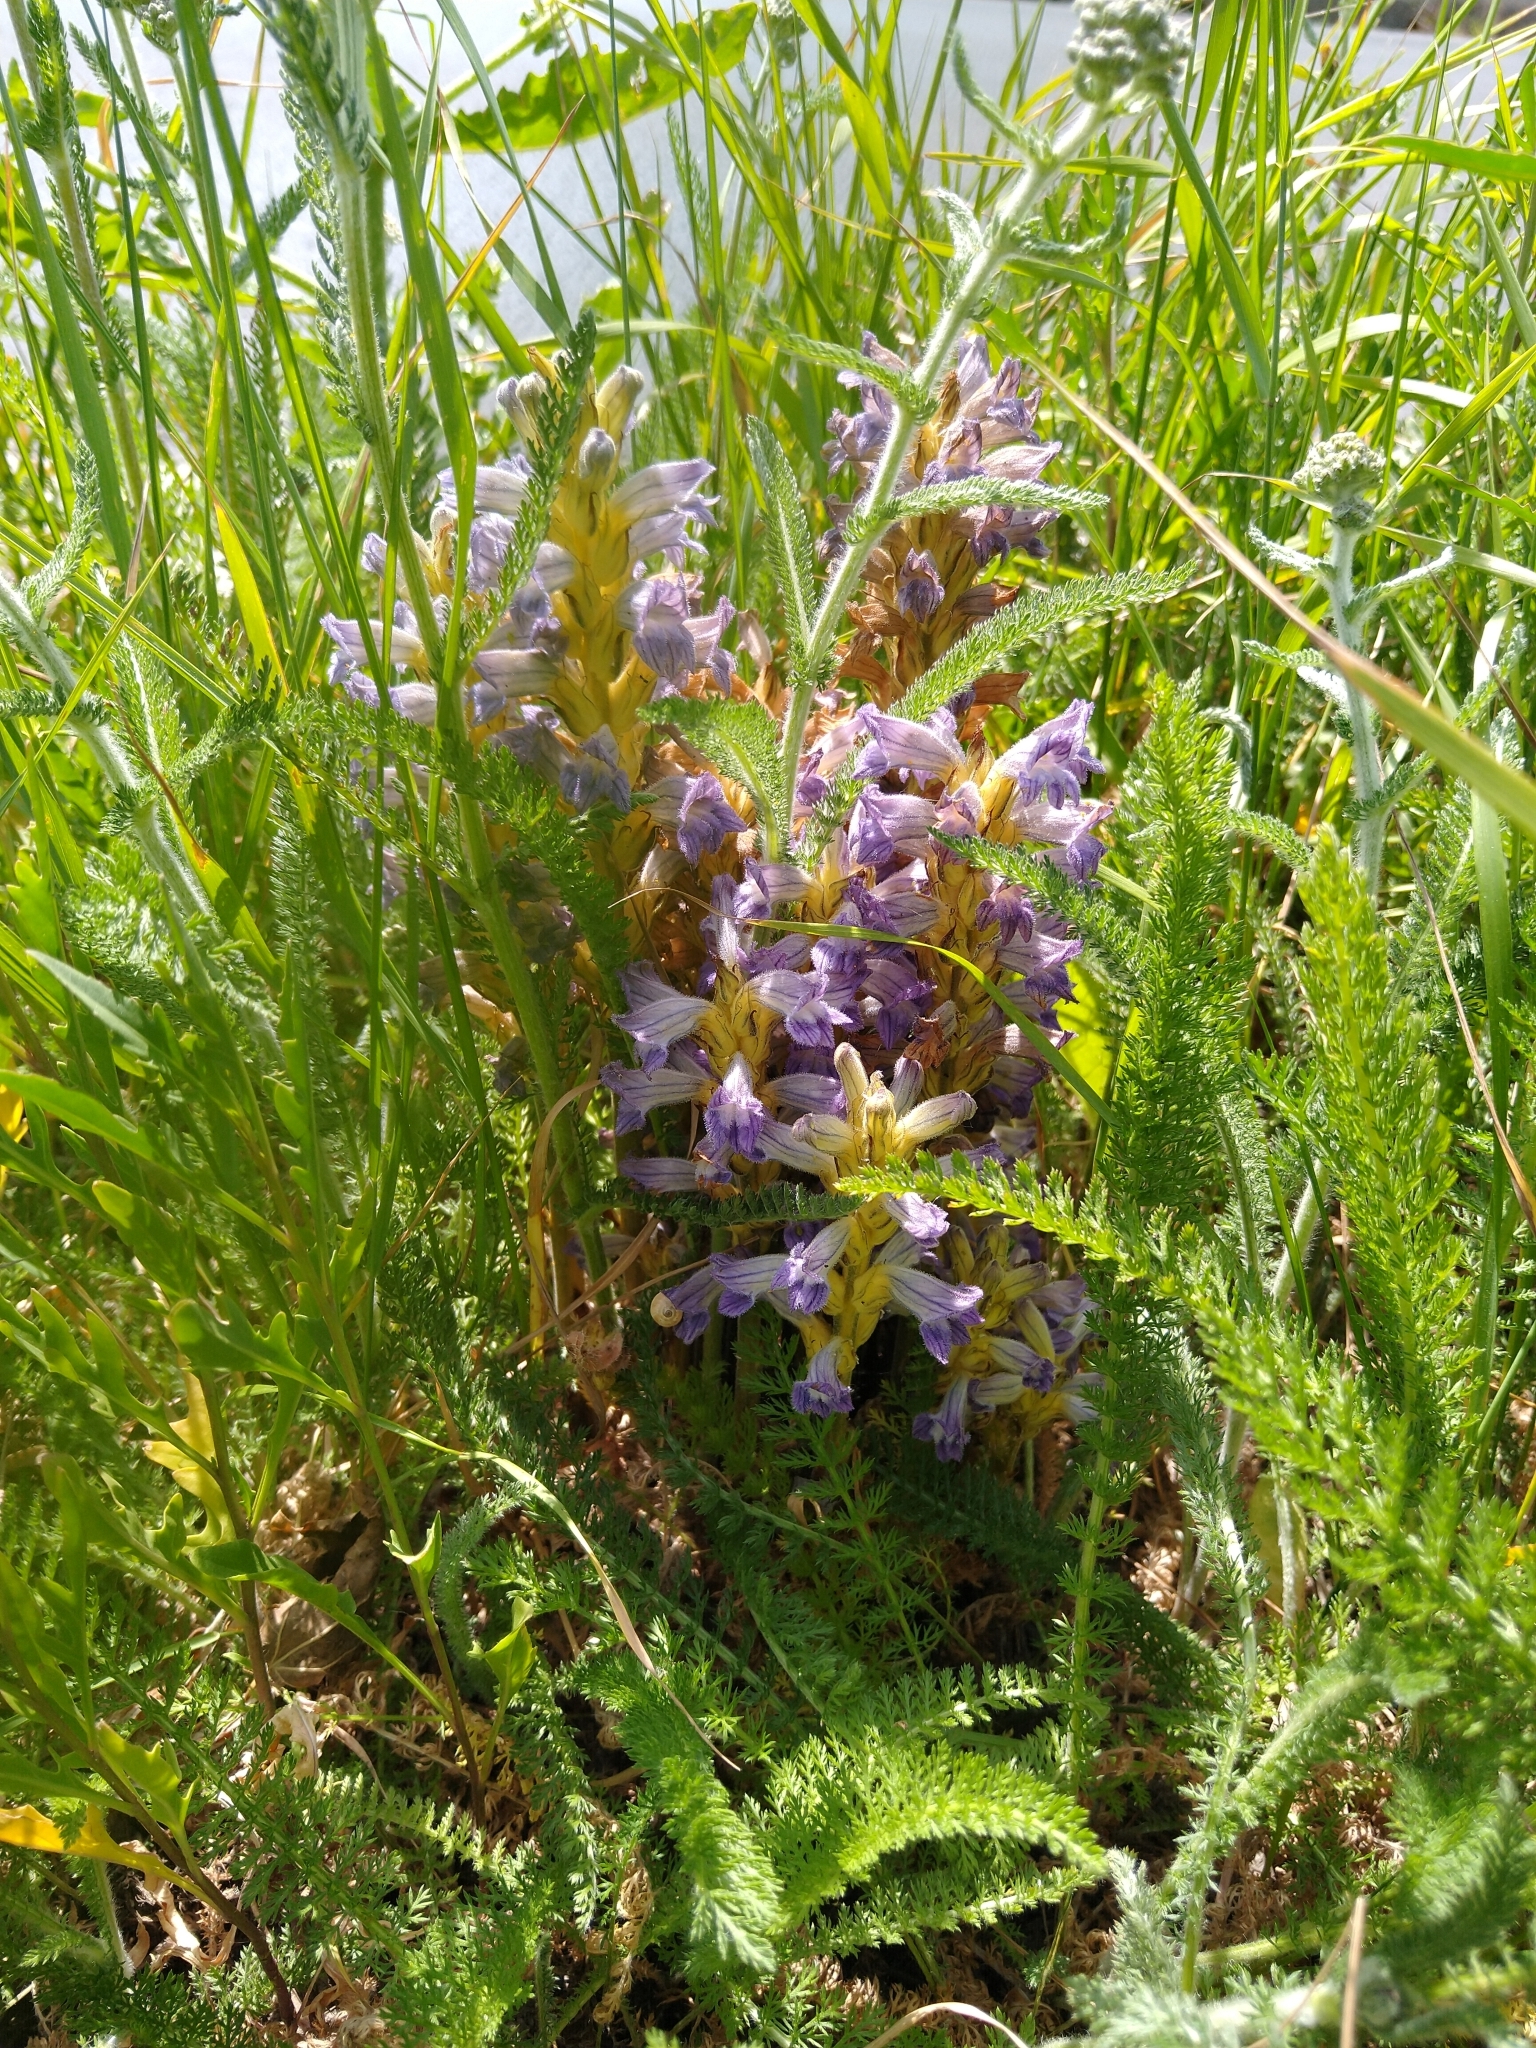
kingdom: Plantae
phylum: Tracheophyta
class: Magnoliopsida
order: Lamiales
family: Orobanchaceae
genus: Phelipanche
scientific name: Phelipanche purpurea
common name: Purple broomrape
